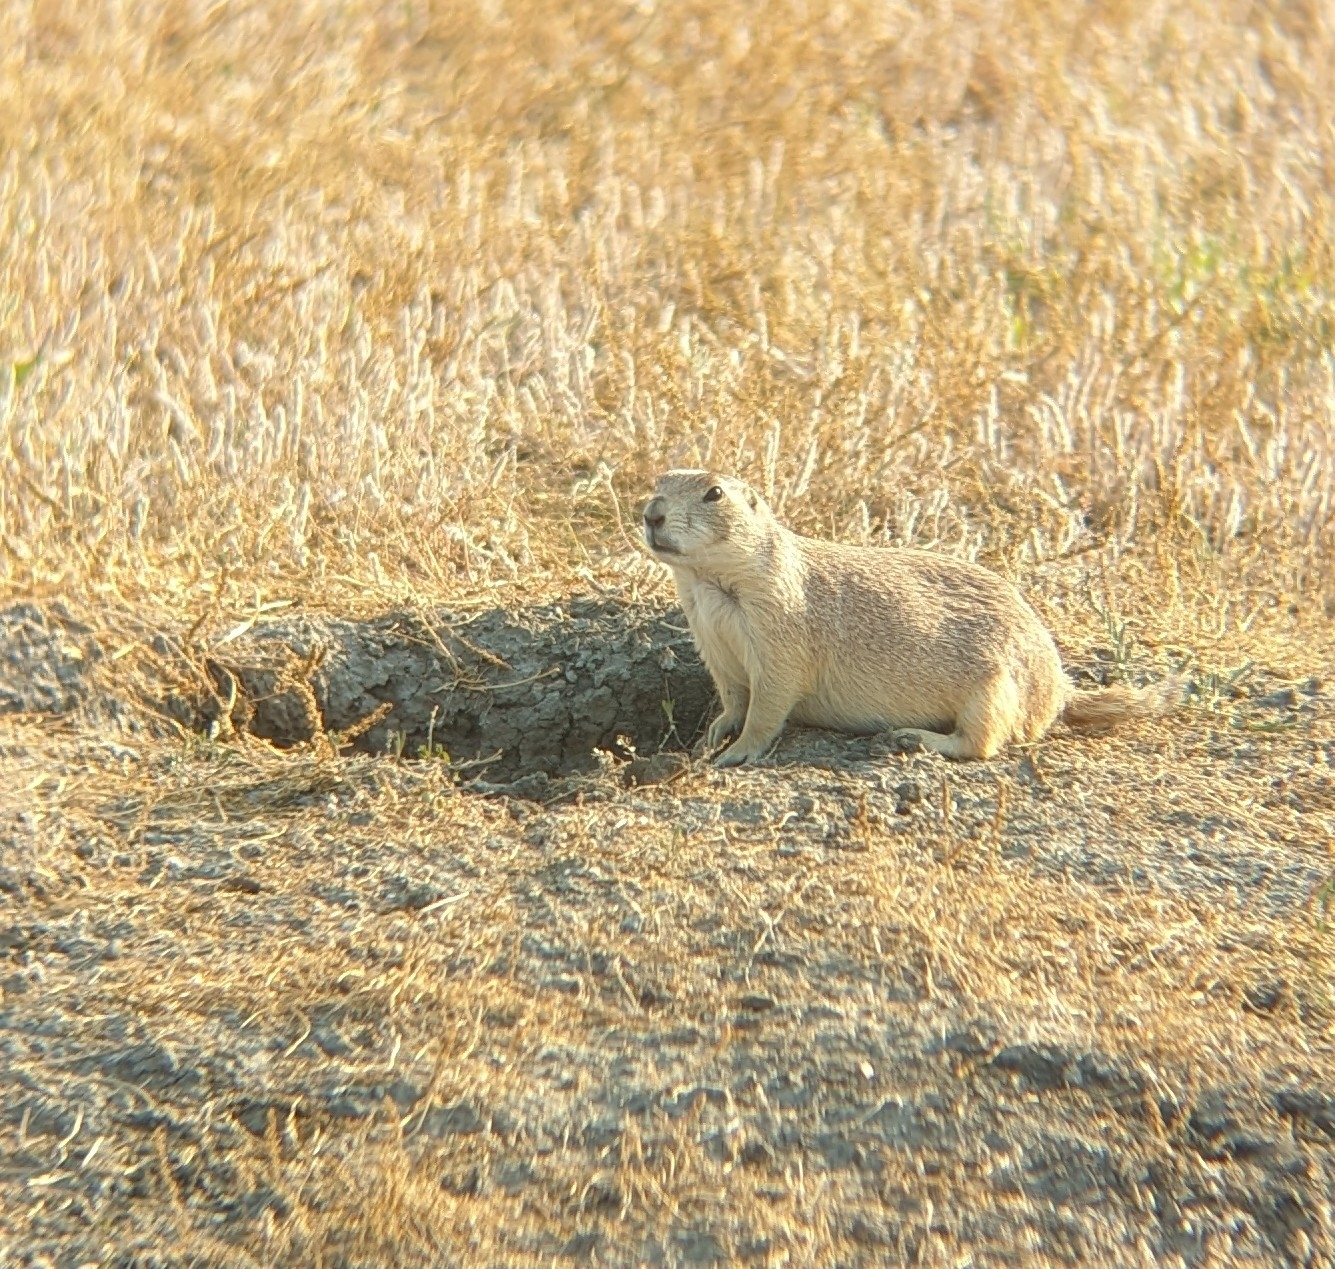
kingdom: Animalia
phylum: Chordata
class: Mammalia
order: Rodentia
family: Sciuridae
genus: Cynomys
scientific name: Cynomys ludovicianus
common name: Black-tailed prairie dog
